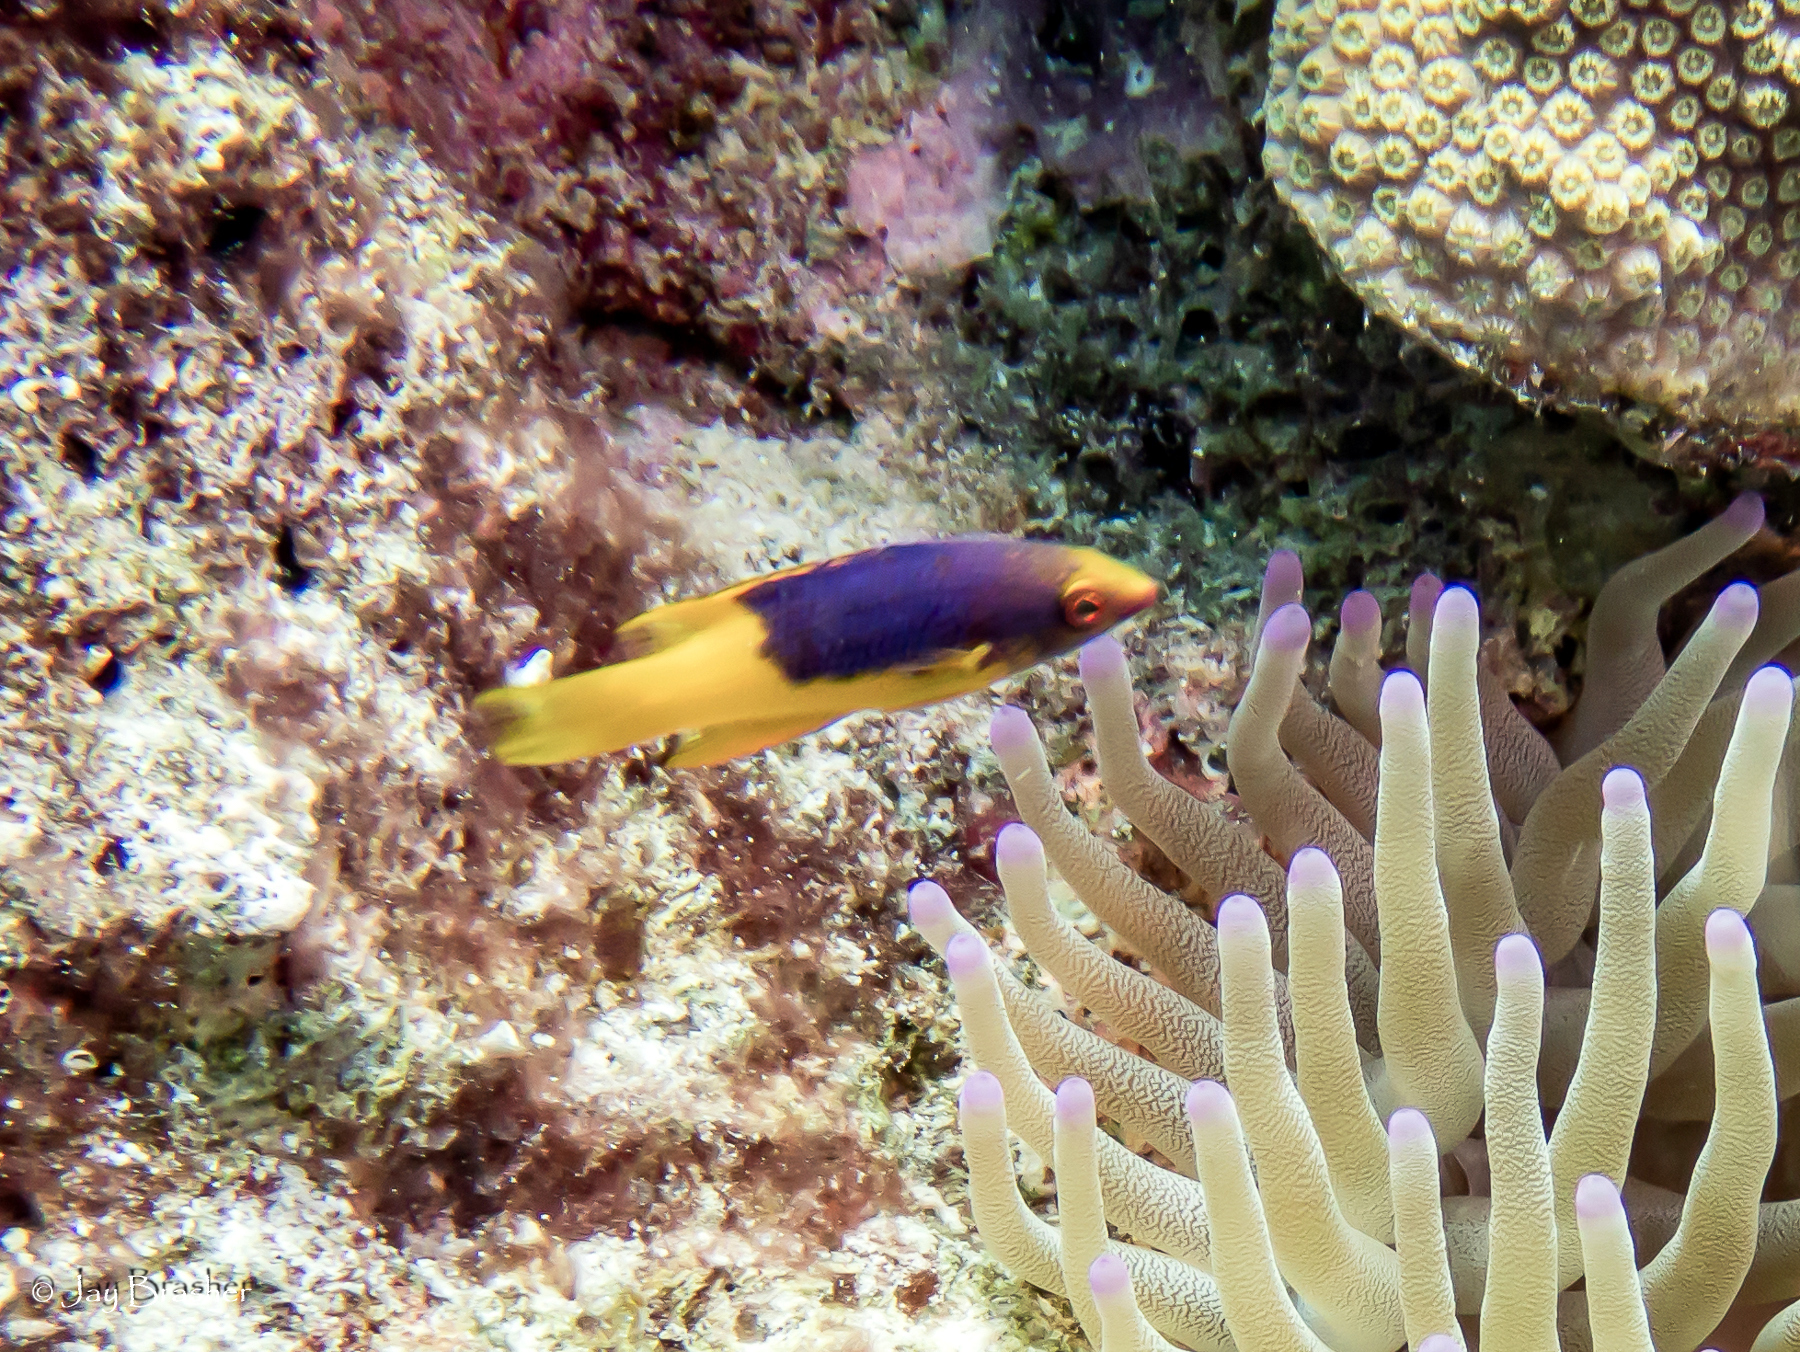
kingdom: Animalia
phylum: Chordata
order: Perciformes
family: Labridae
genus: Bodianus
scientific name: Bodianus rufus
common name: Spanish hogfish
